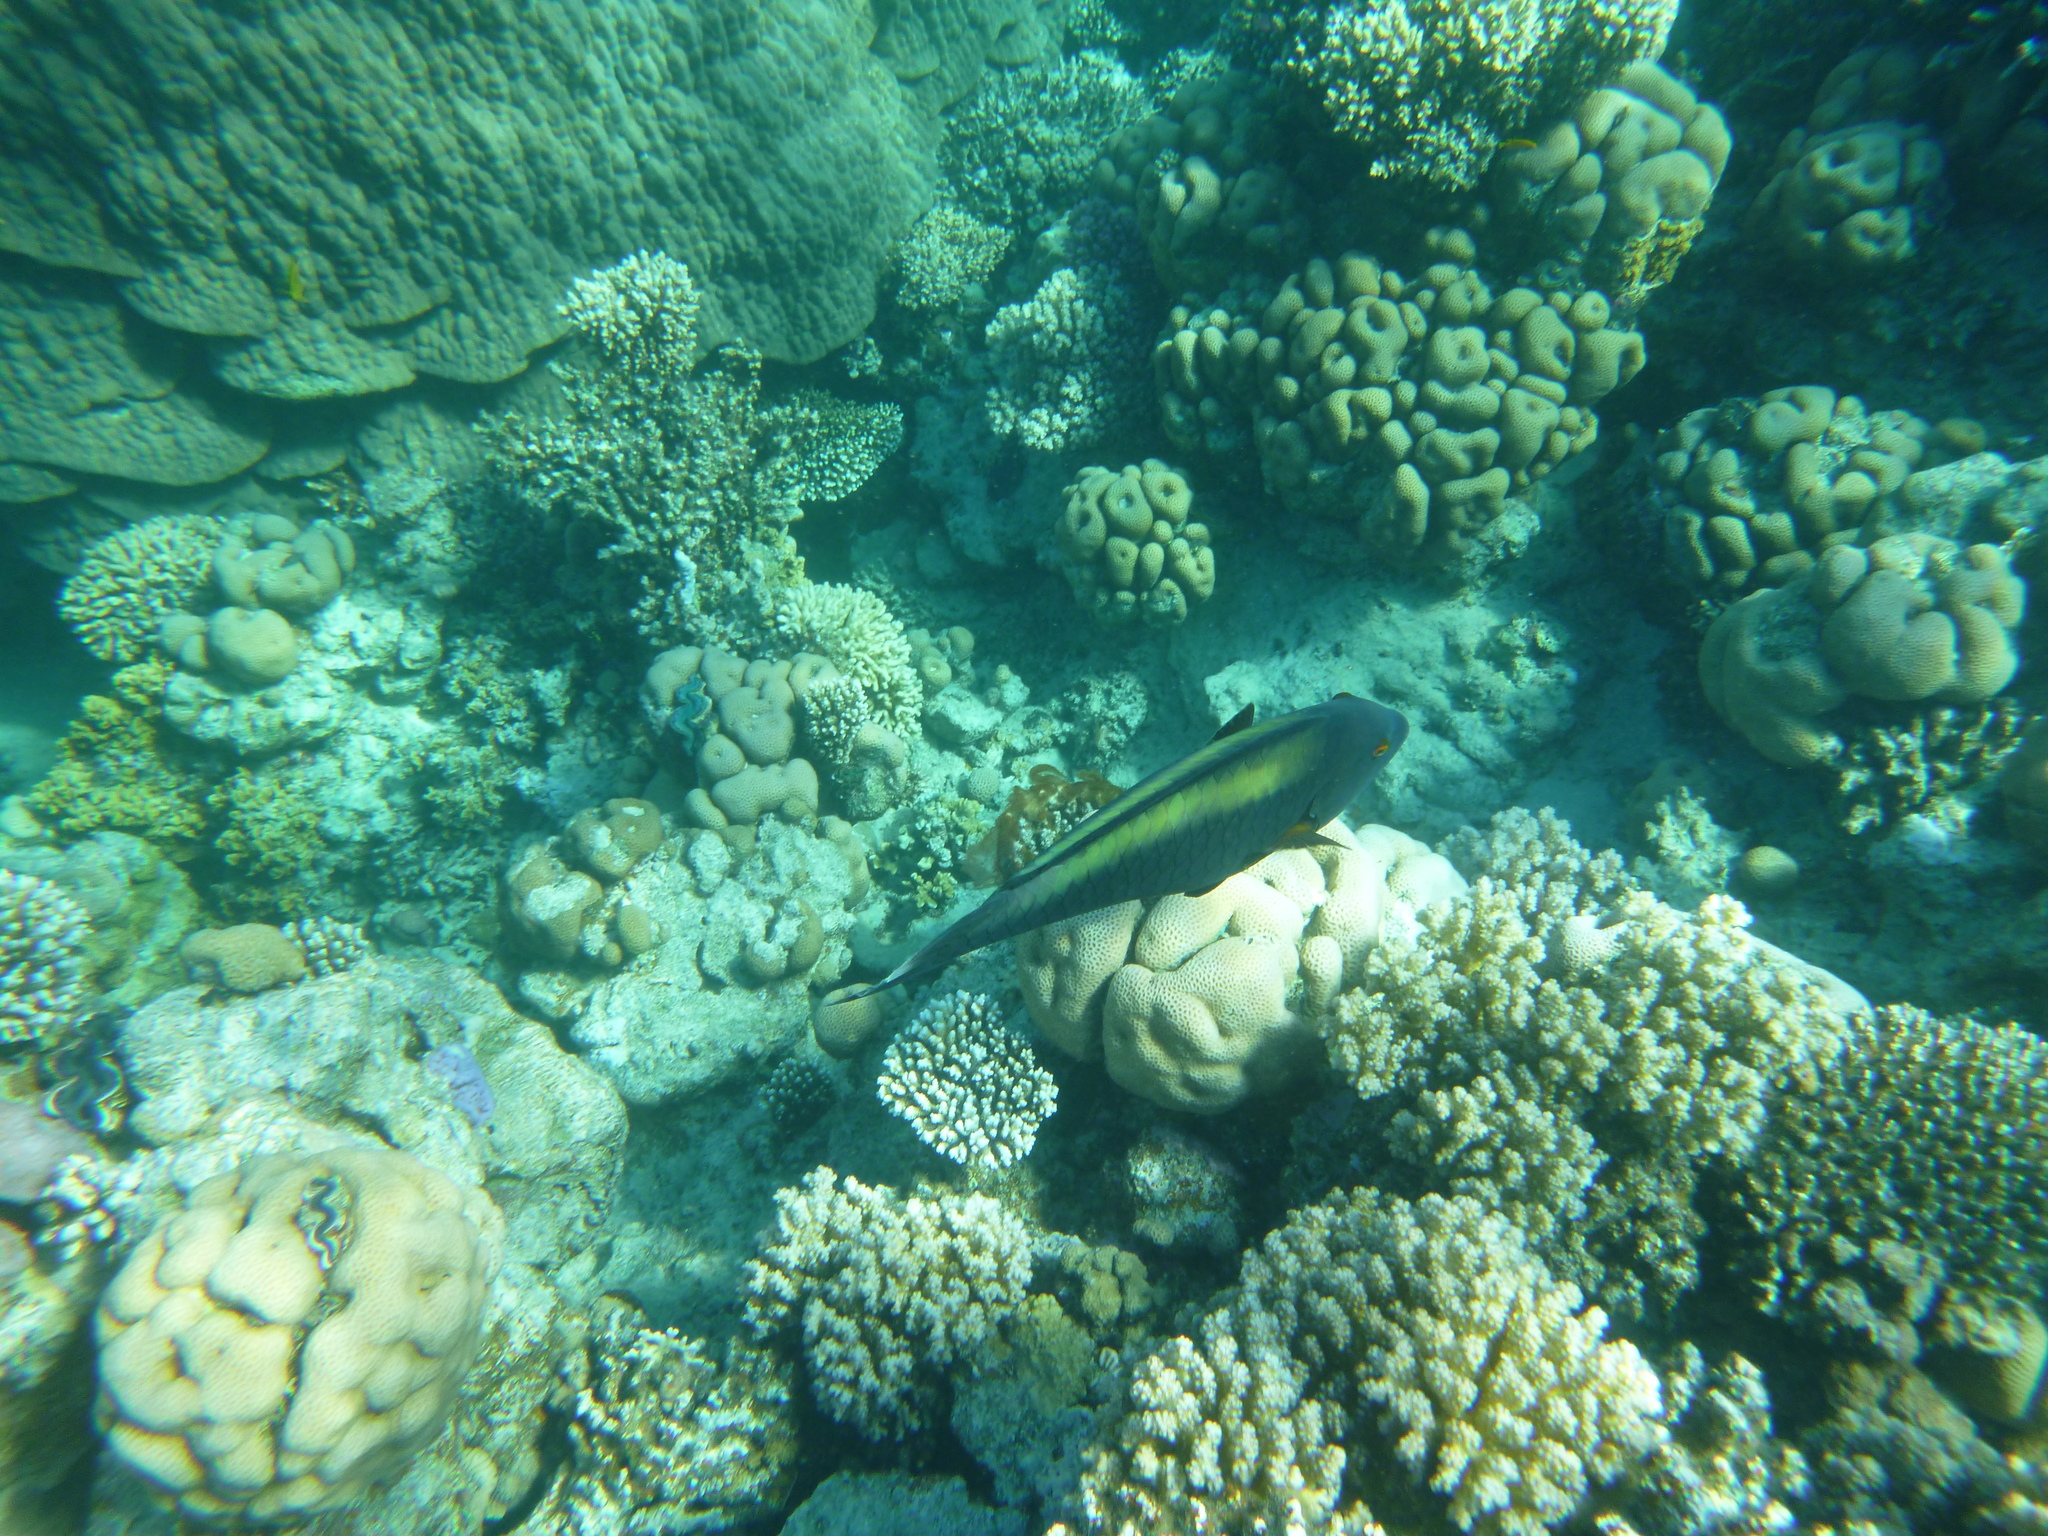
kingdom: Animalia
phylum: Chordata
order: Perciformes
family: Scaridae
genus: Cetoscarus
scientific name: Cetoscarus bicolor
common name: Bicolour parrotfish
